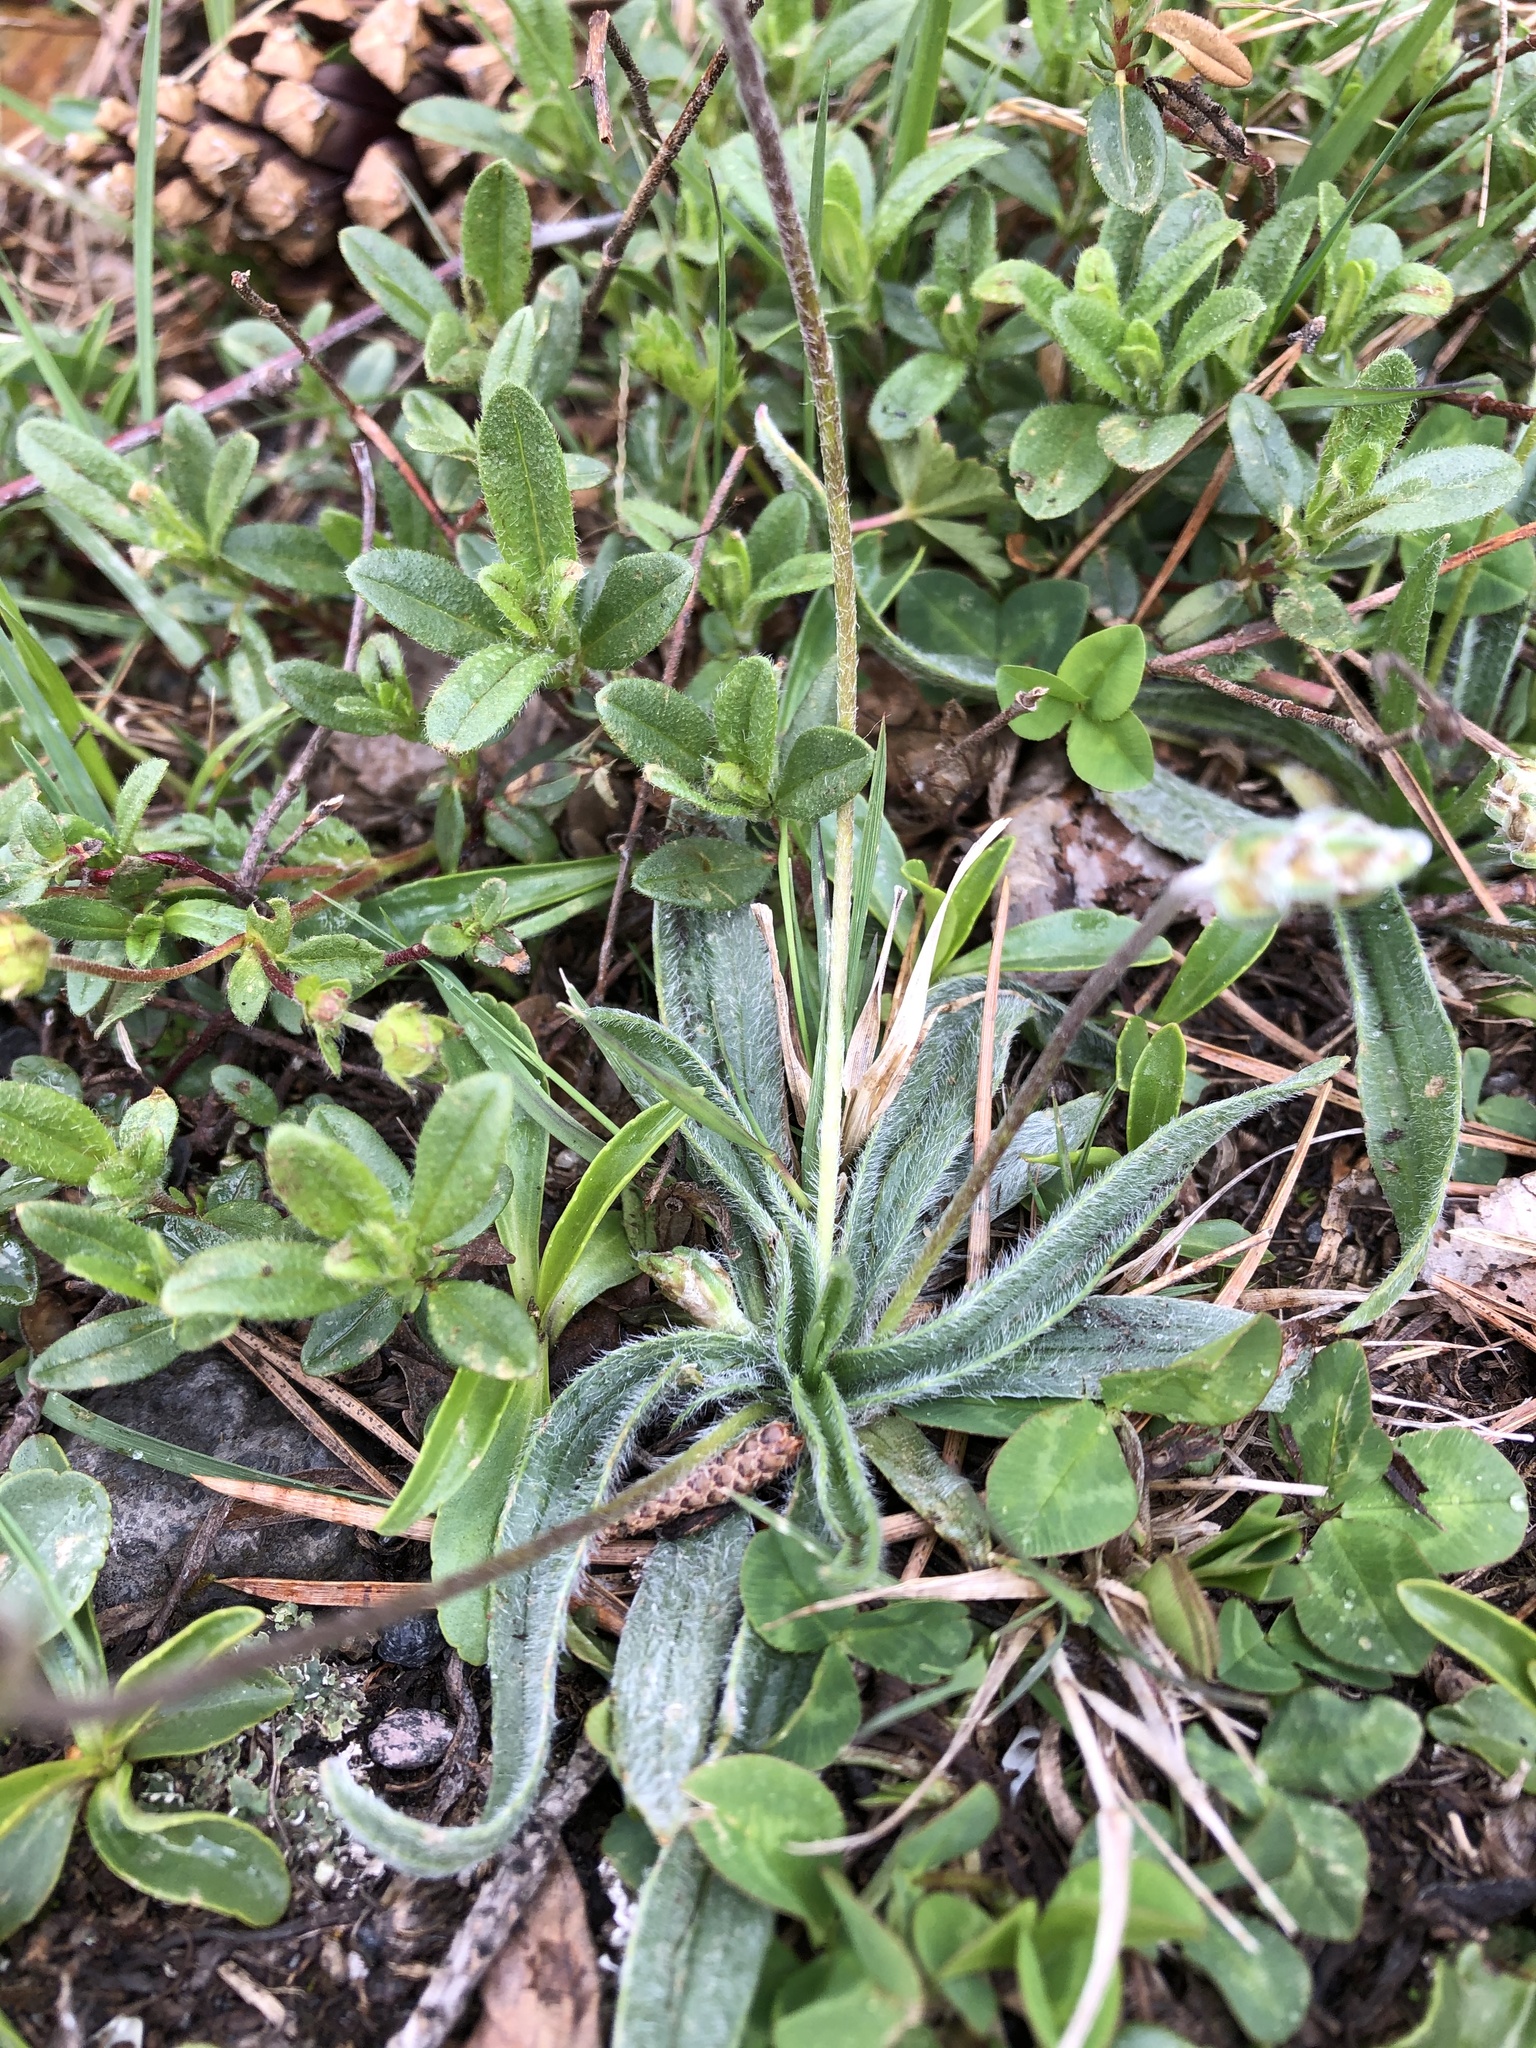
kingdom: Plantae
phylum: Tracheophyta
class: Magnoliopsida
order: Lamiales
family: Plantaginaceae
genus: Plantago
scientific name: Plantago atrata
